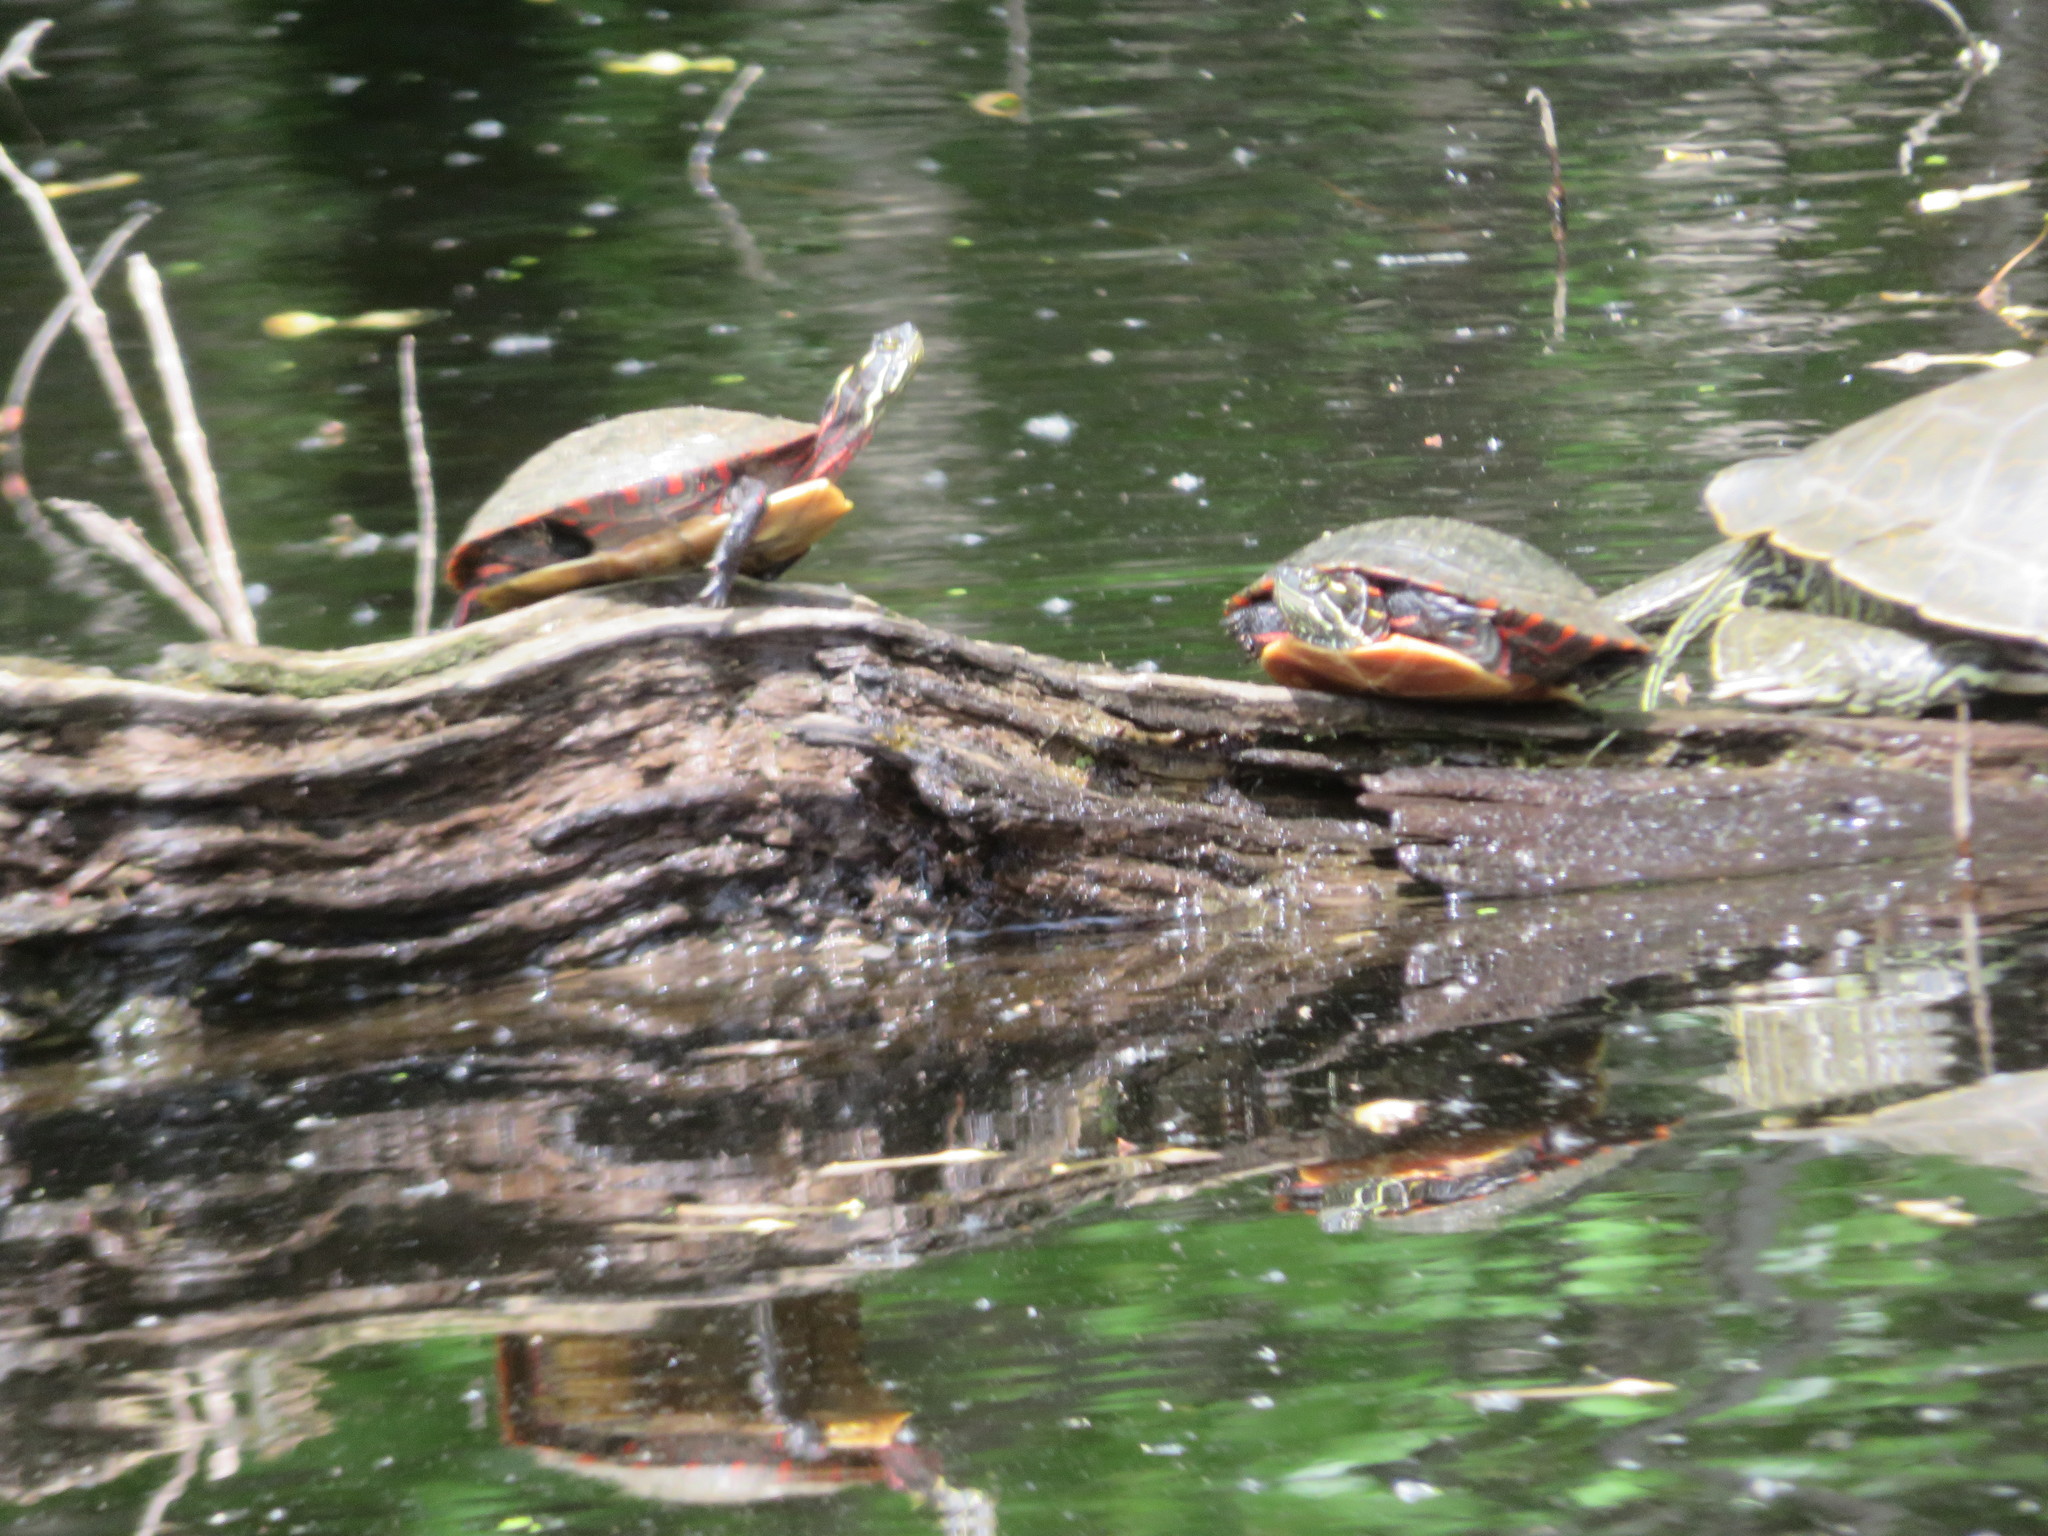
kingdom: Animalia
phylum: Chordata
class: Testudines
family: Emydidae
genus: Chrysemys
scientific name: Chrysemys picta
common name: Painted turtle
